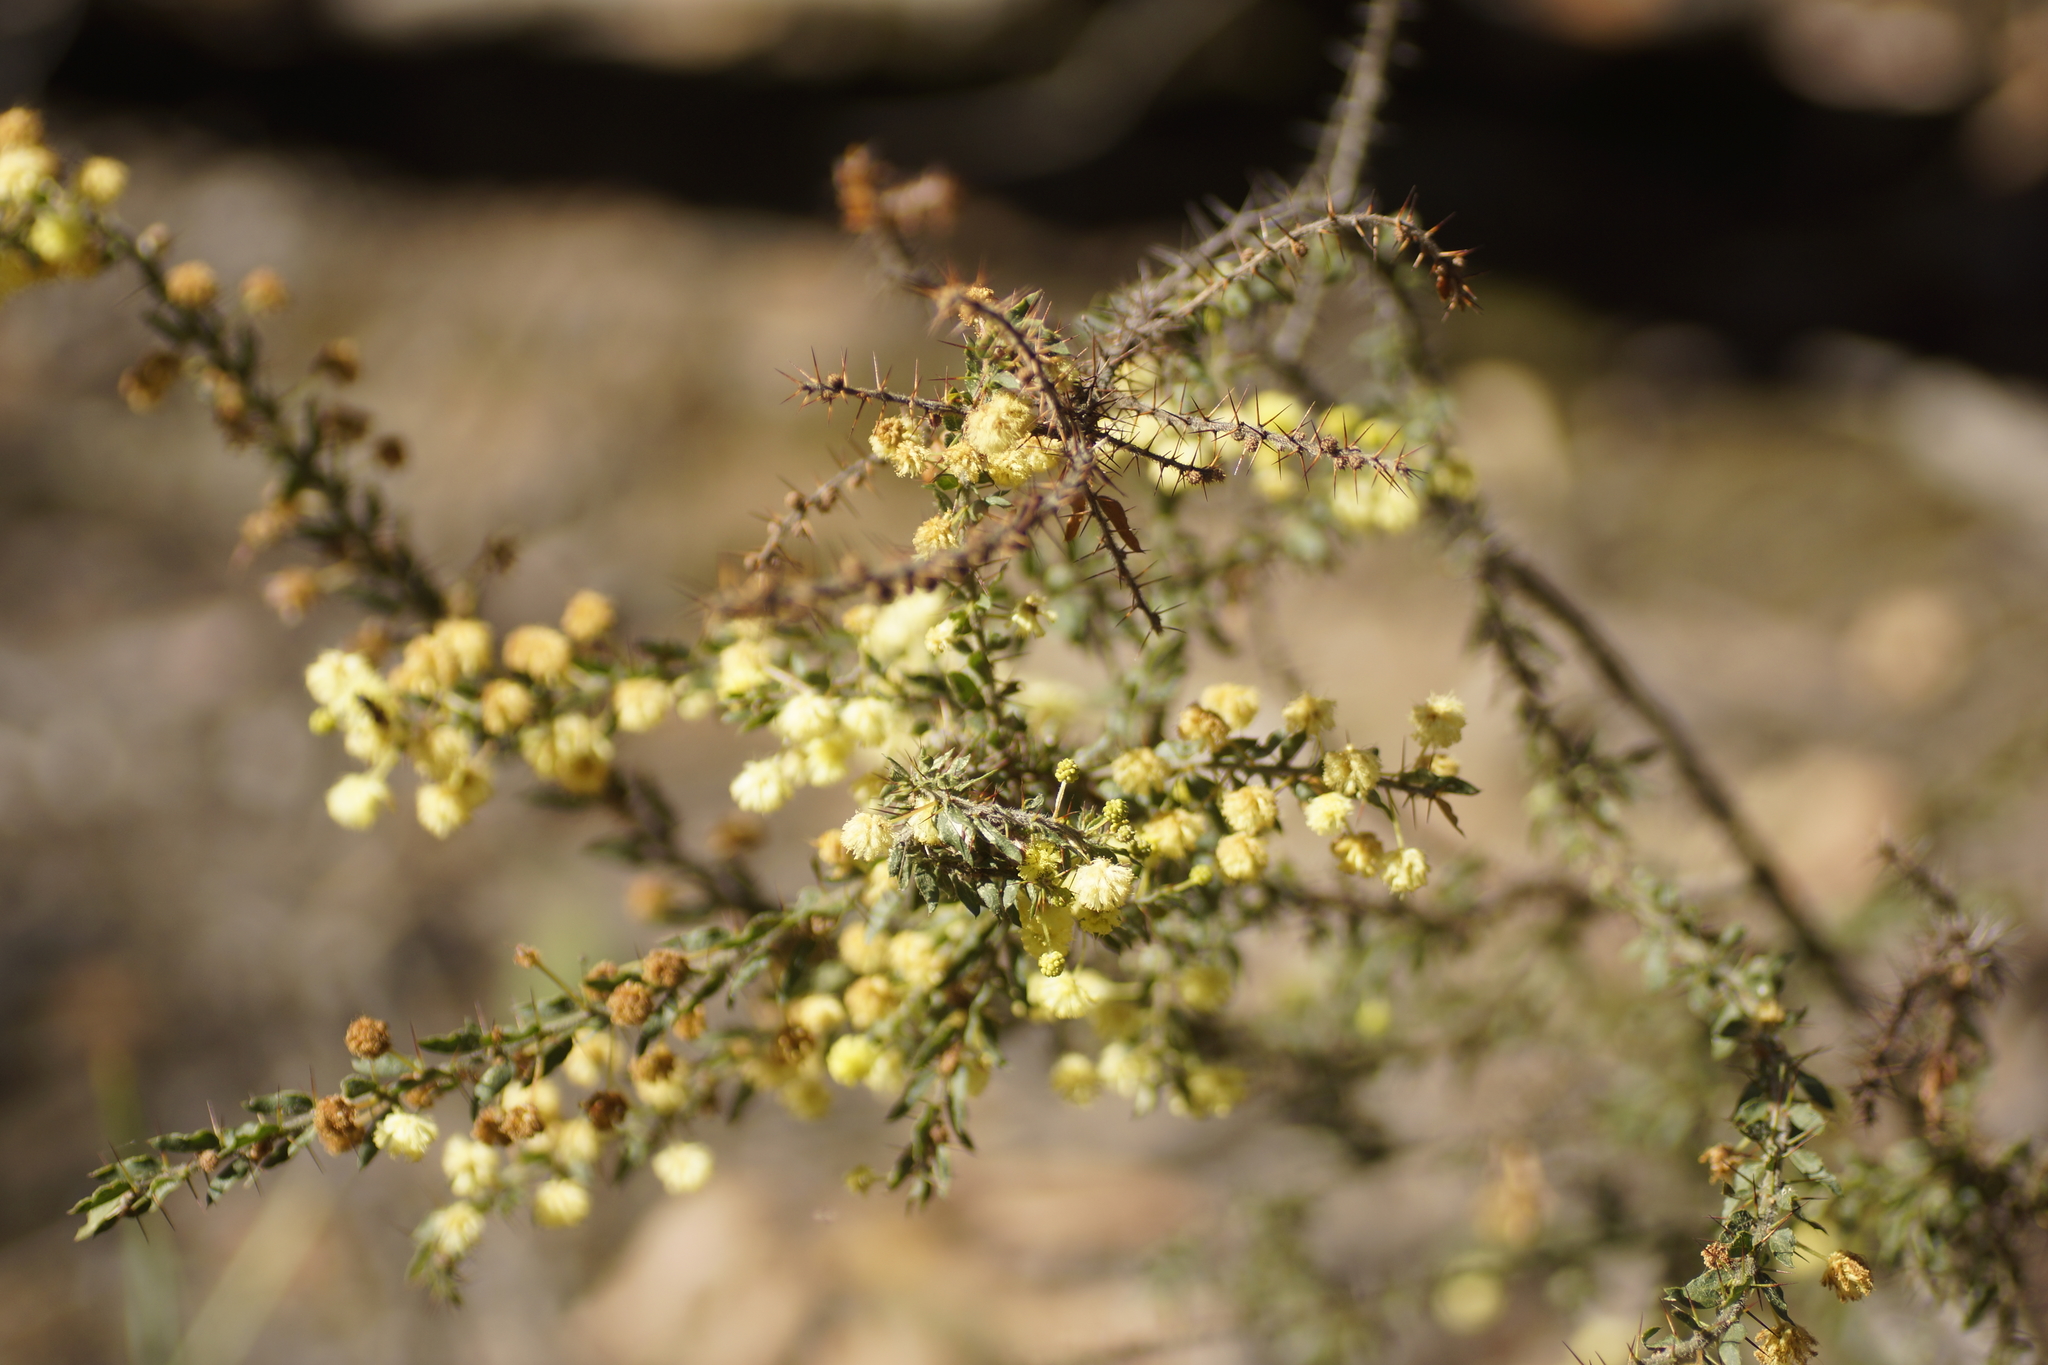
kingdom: Plantae
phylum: Tracheophyta
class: Magnoliopsida
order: Fabales
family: Fabaceae
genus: Acacia
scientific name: Acacia paradoxa
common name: Paradox acacia
